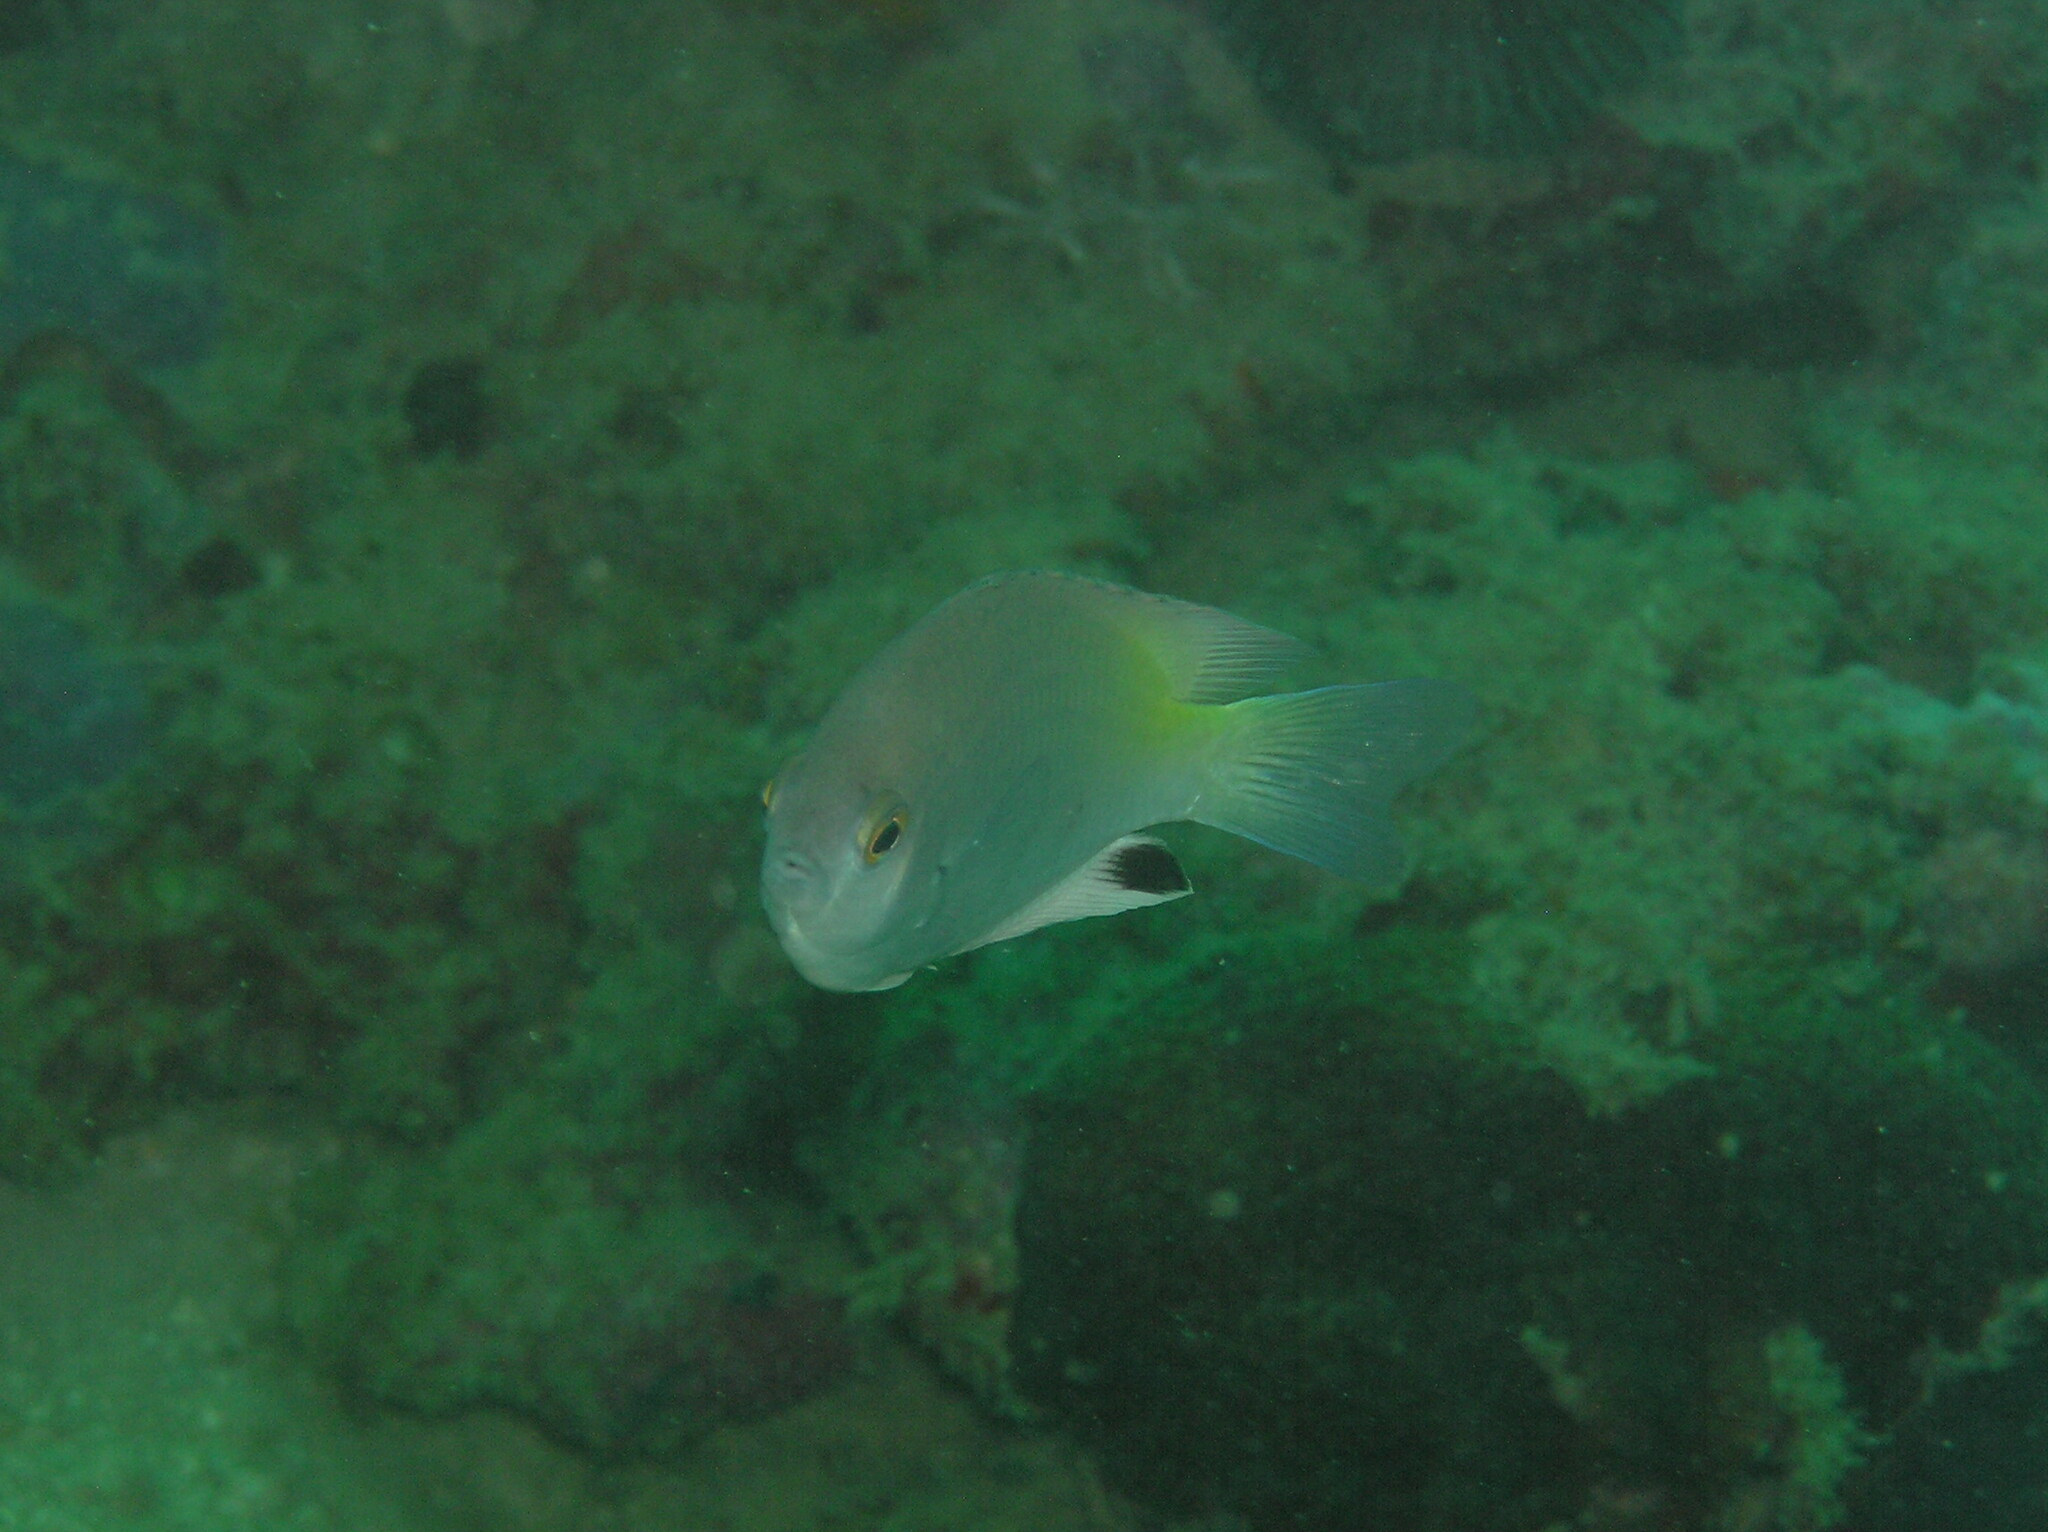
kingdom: Animalia
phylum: Chordata
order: Perciformes
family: Pomacentridae
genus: Pomacentrus
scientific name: Pomacentrus stigma
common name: Blackspot damsel
